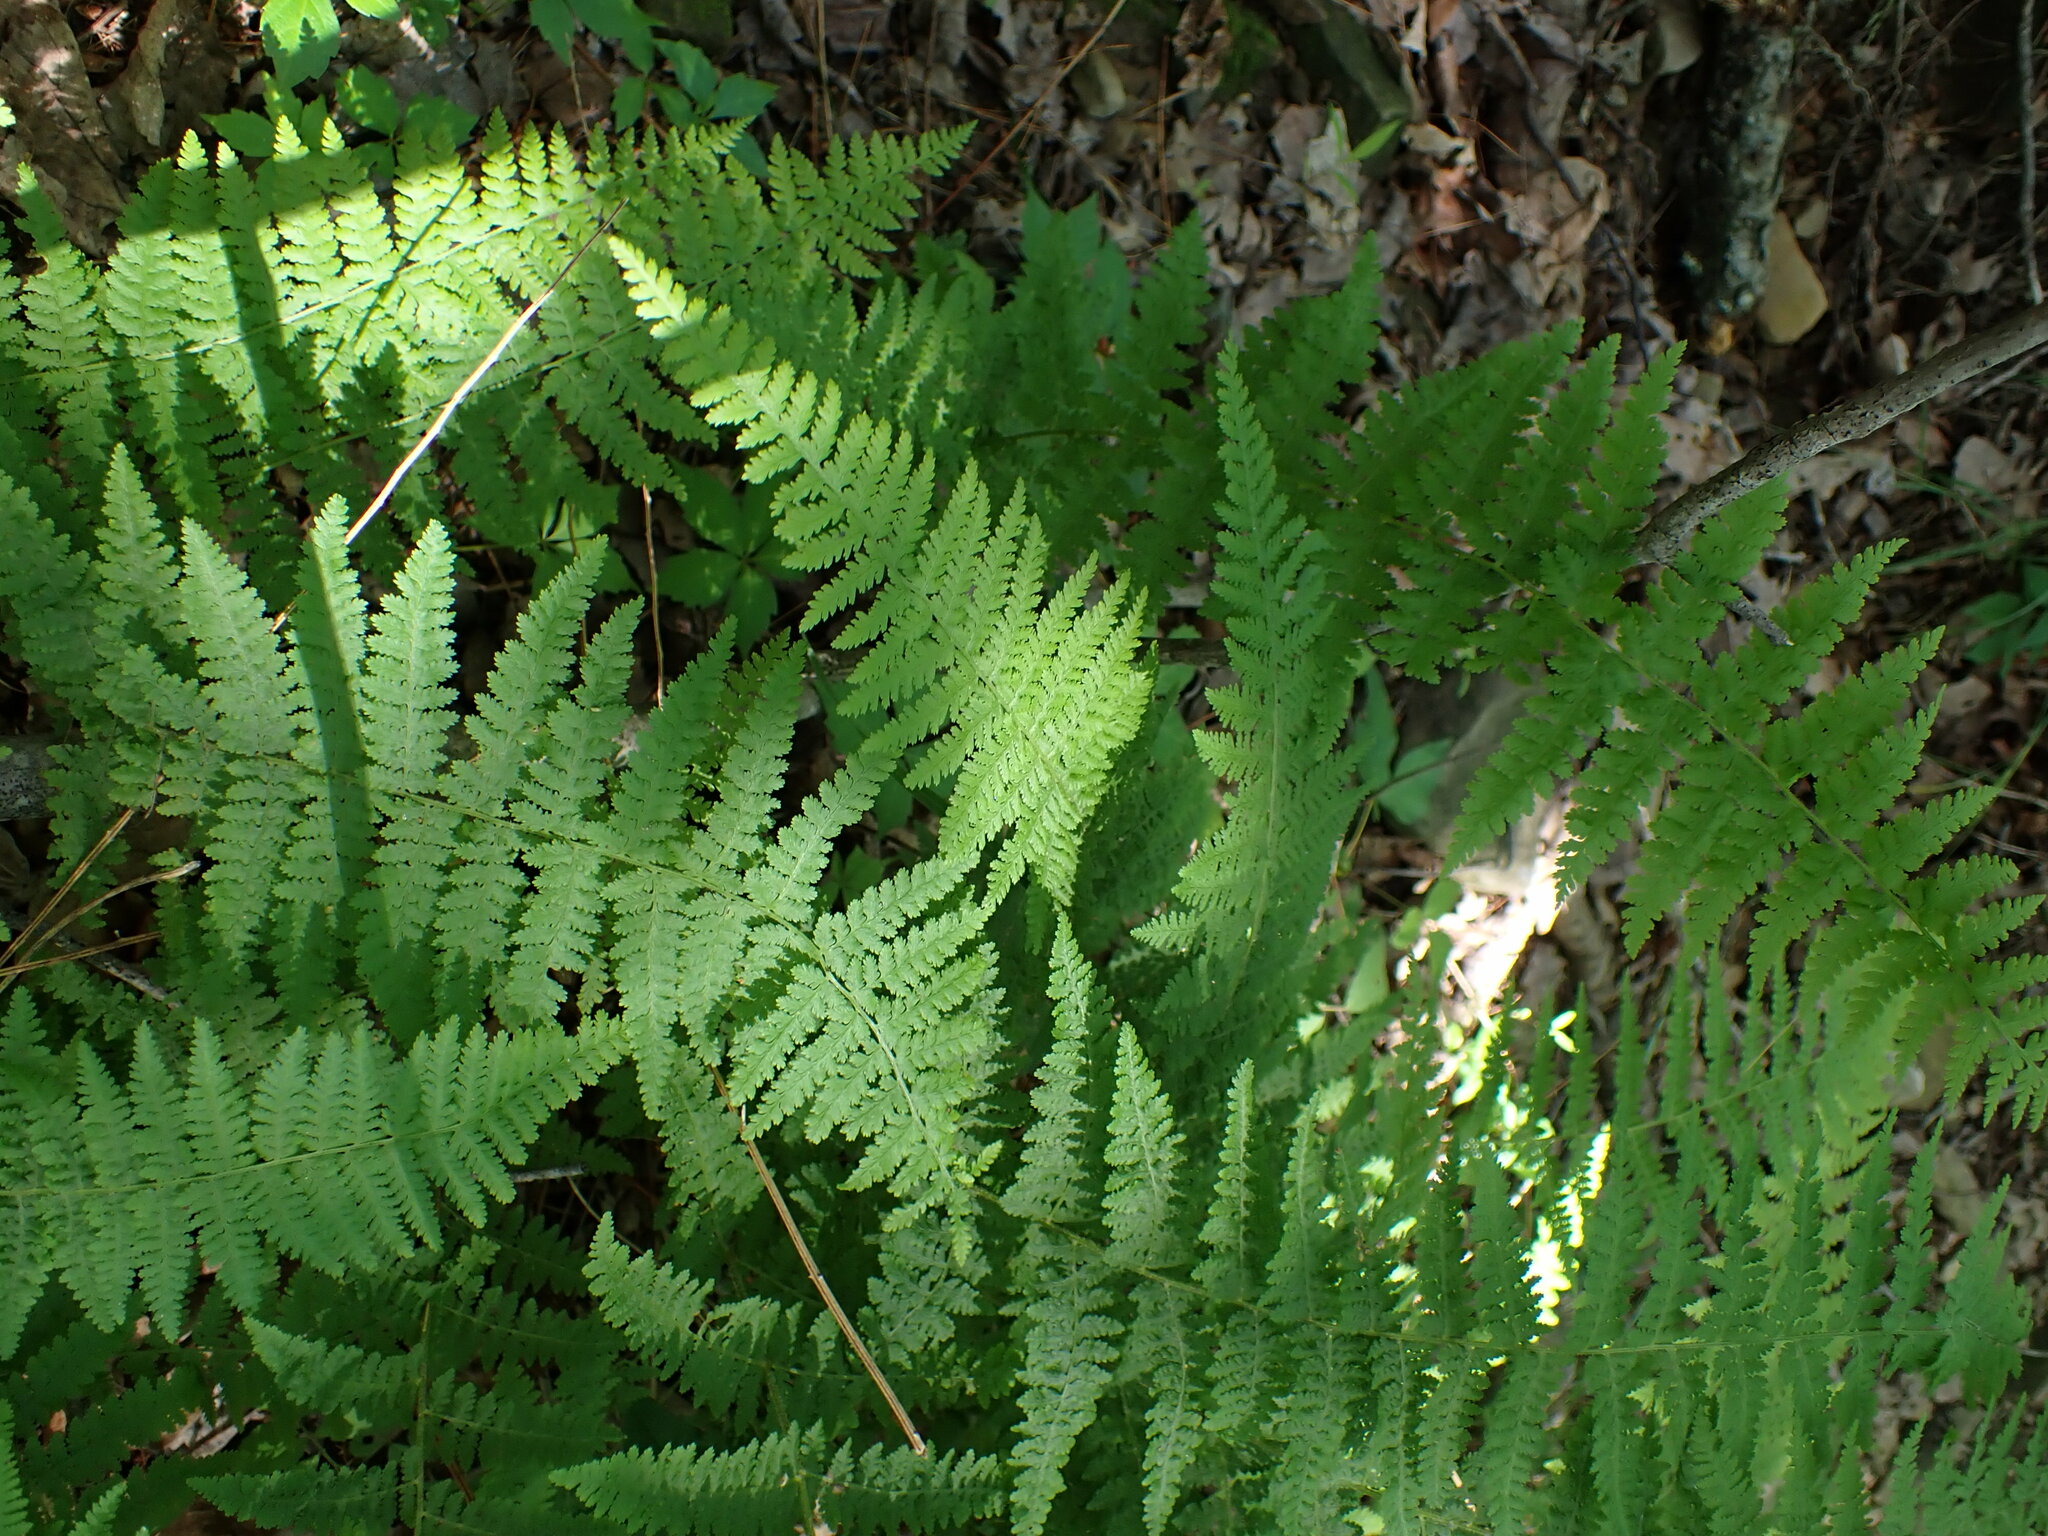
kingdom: Plantae
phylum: Tracheophyta
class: Polypodiopsida
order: Polypodiales
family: Dennstaedtiaceae
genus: Sitobolium
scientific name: Sitobolium punctilobum
